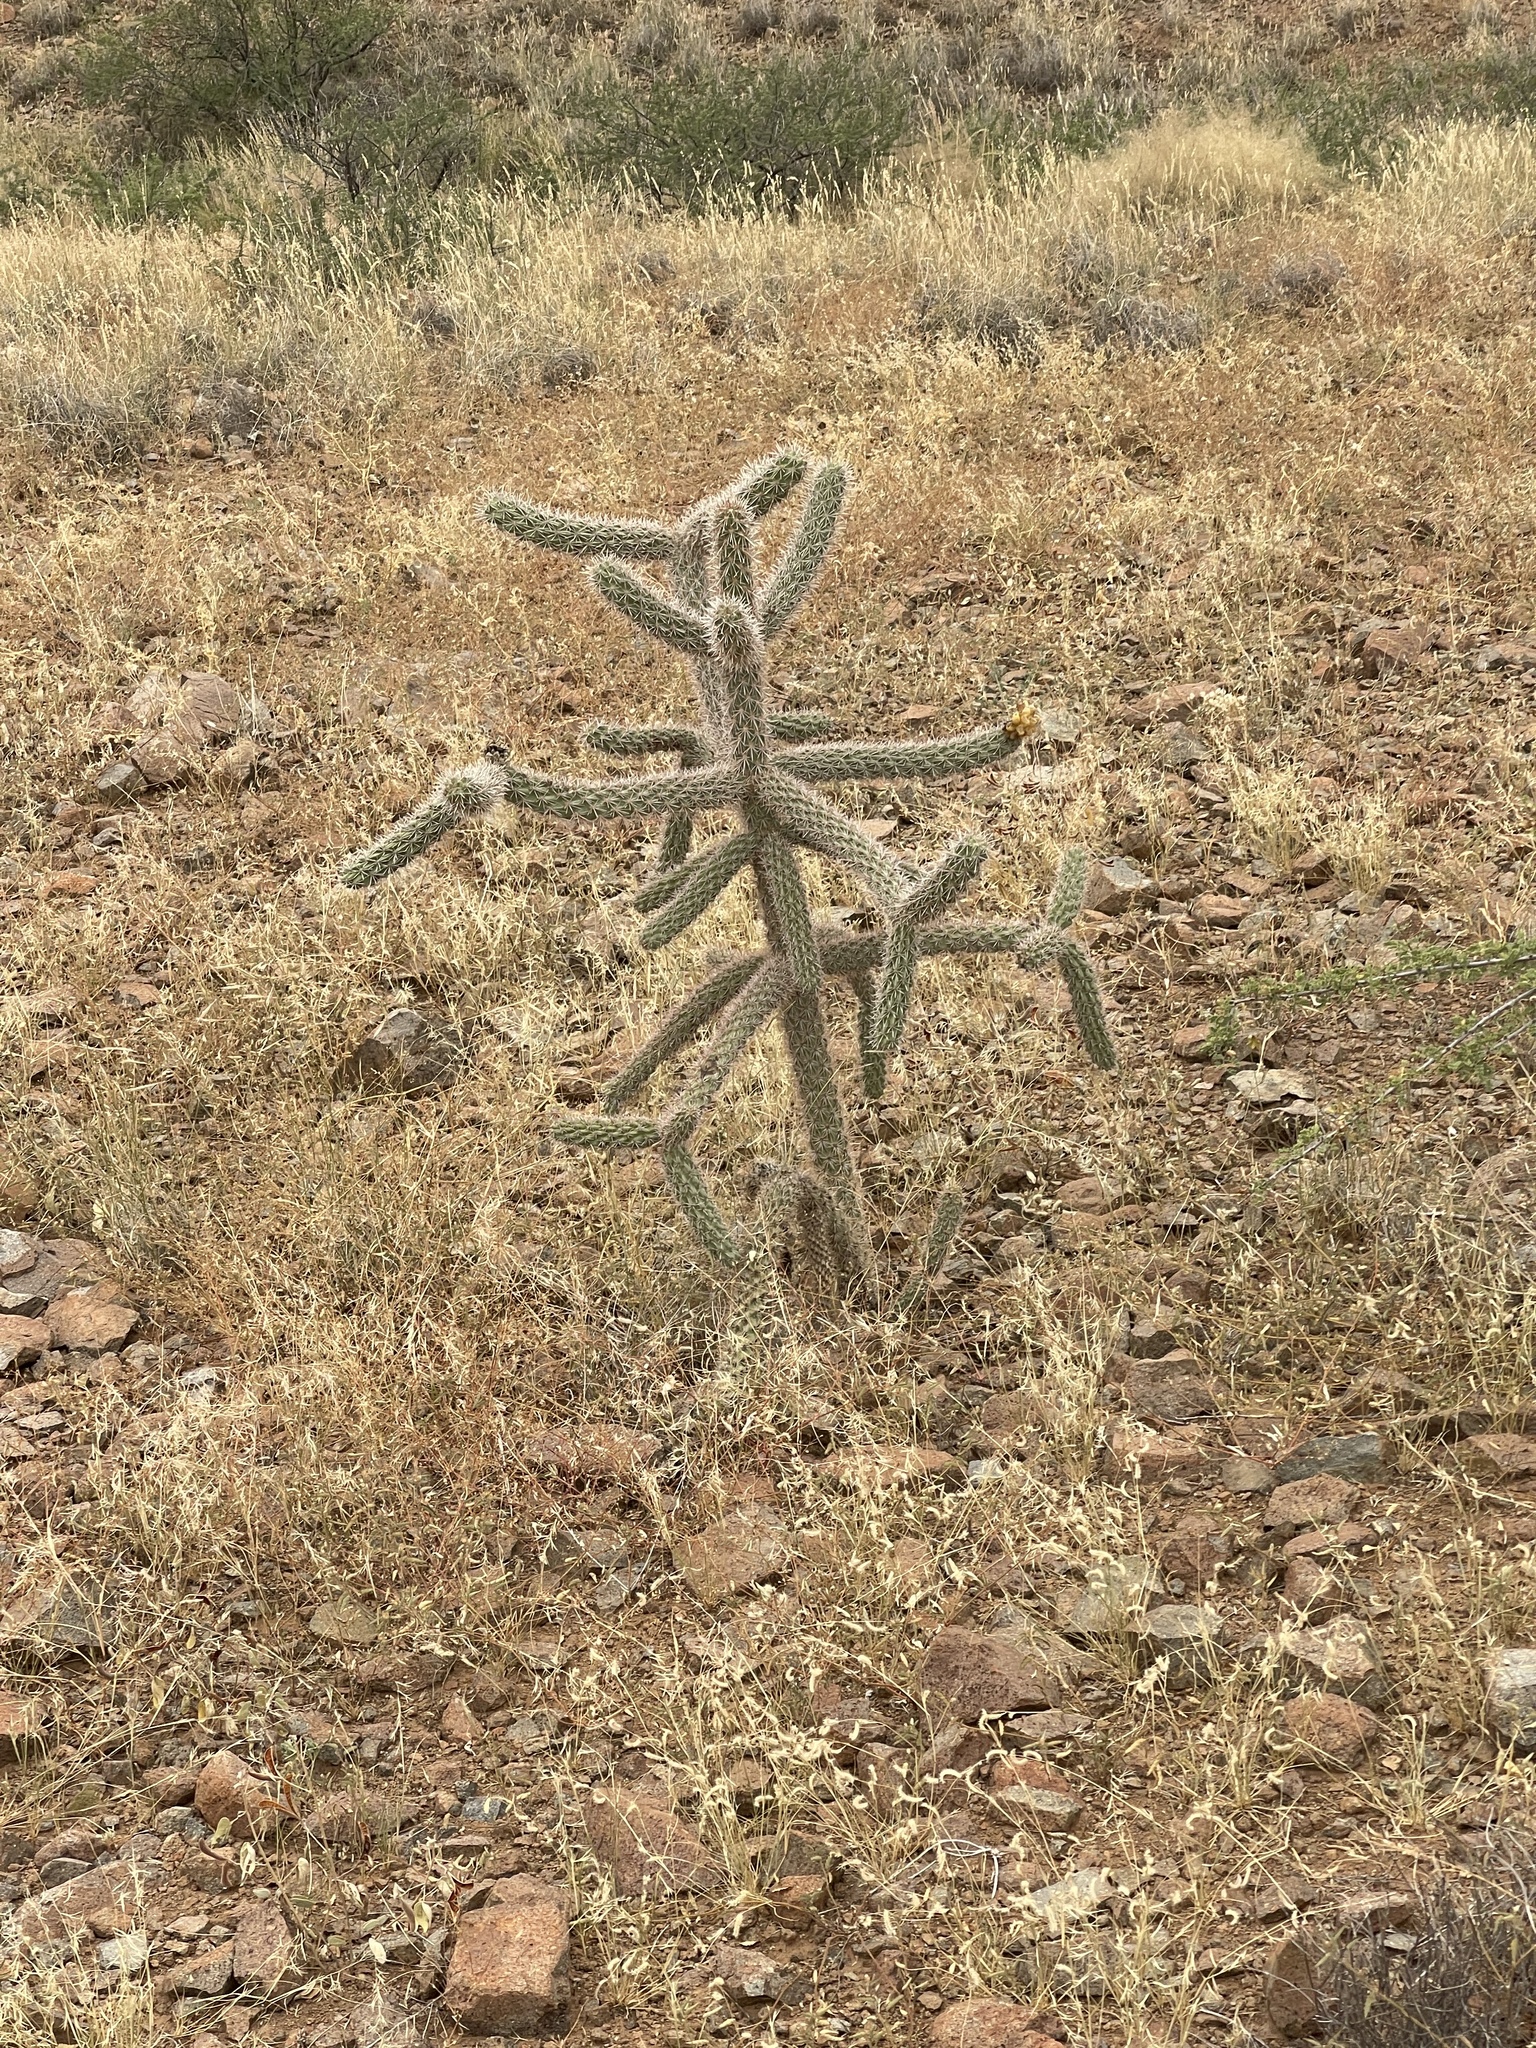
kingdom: Plantae
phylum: Tracheophyta
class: Magnoliopsida
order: Caryophyllales
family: Cactaceae
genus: Cylindropuntia
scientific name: Cylindropuntia imbricata
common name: Candelabrum cactus
